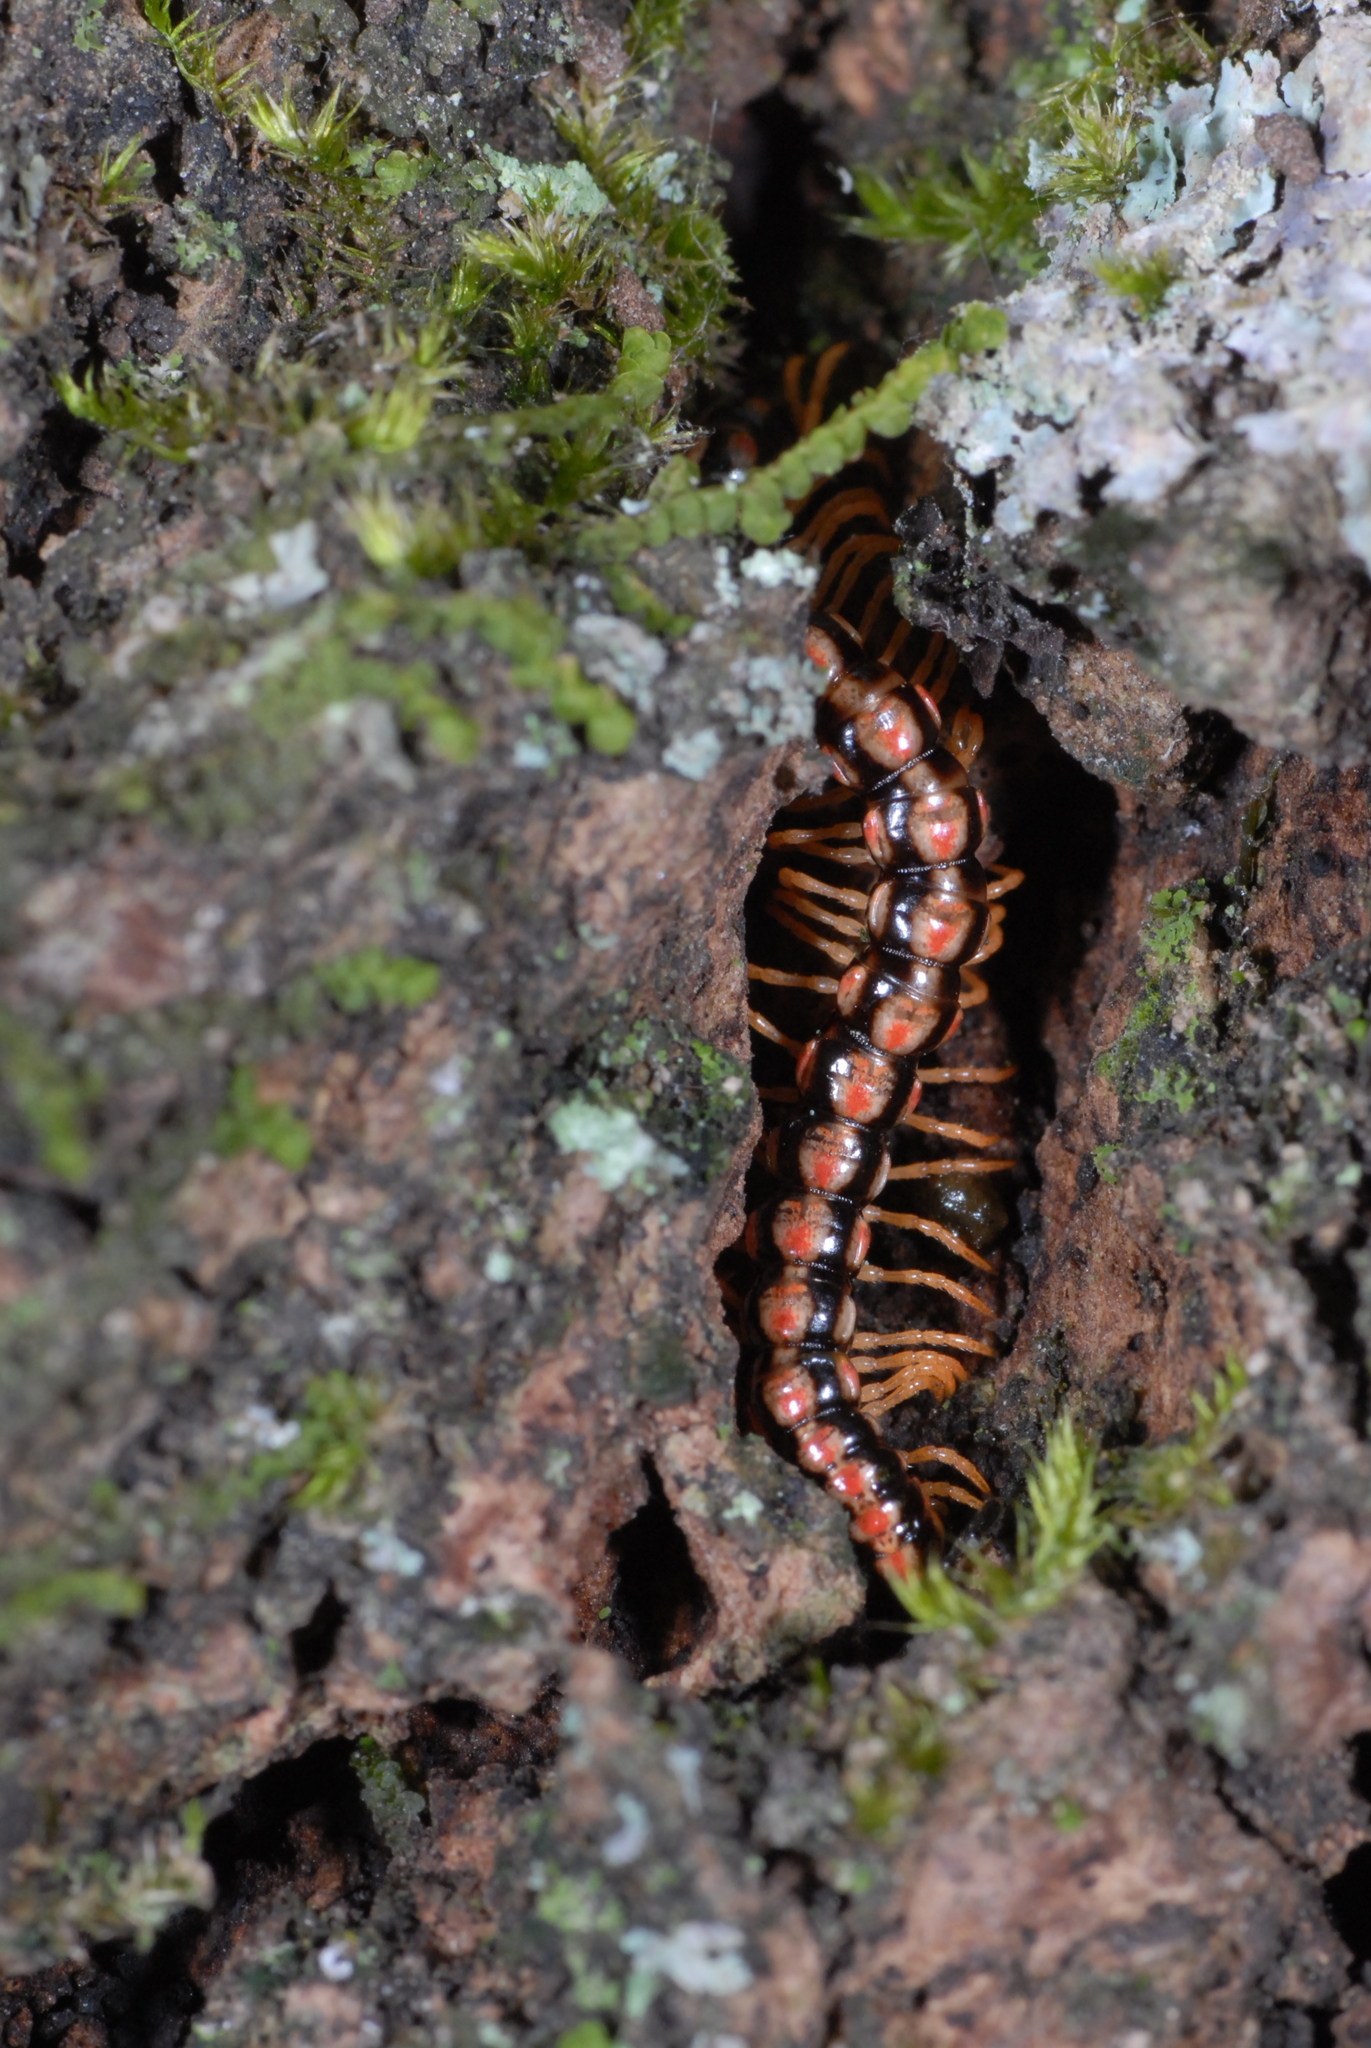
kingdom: Animalia
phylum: Arthropoda
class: Diplopoda
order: Polydesmida
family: Paradoxosomatidae
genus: Helicorthomorpha
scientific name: Helicorthomorpha holstii
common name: Millipede
